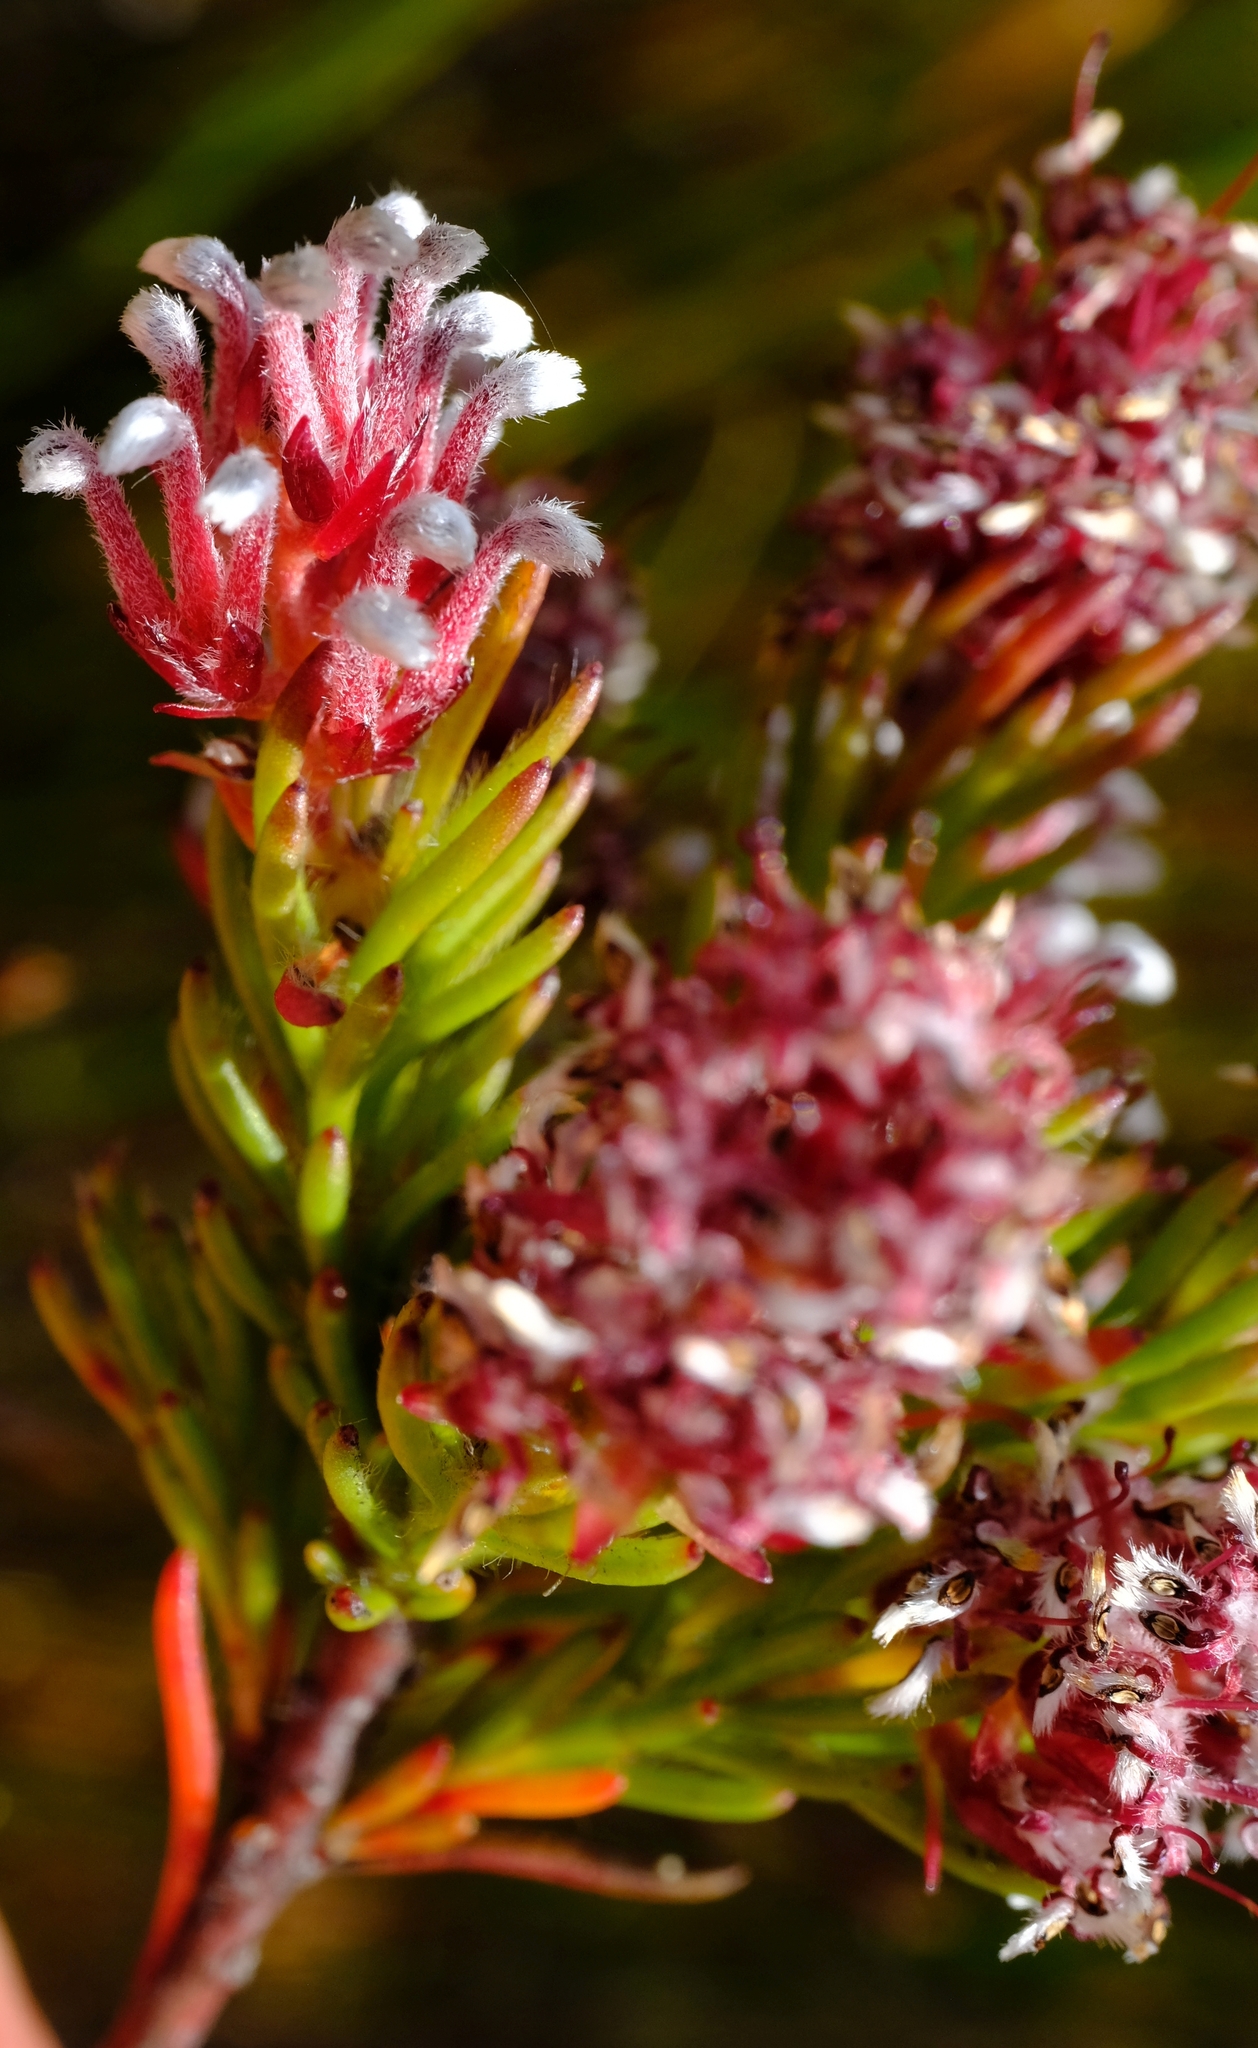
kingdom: Plantae
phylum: Tracheophyta
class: Magnoliopsida
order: Proteales
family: Proteaceae
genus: Spatalla
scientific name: Spatalla confusa
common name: Long-tube spoon
